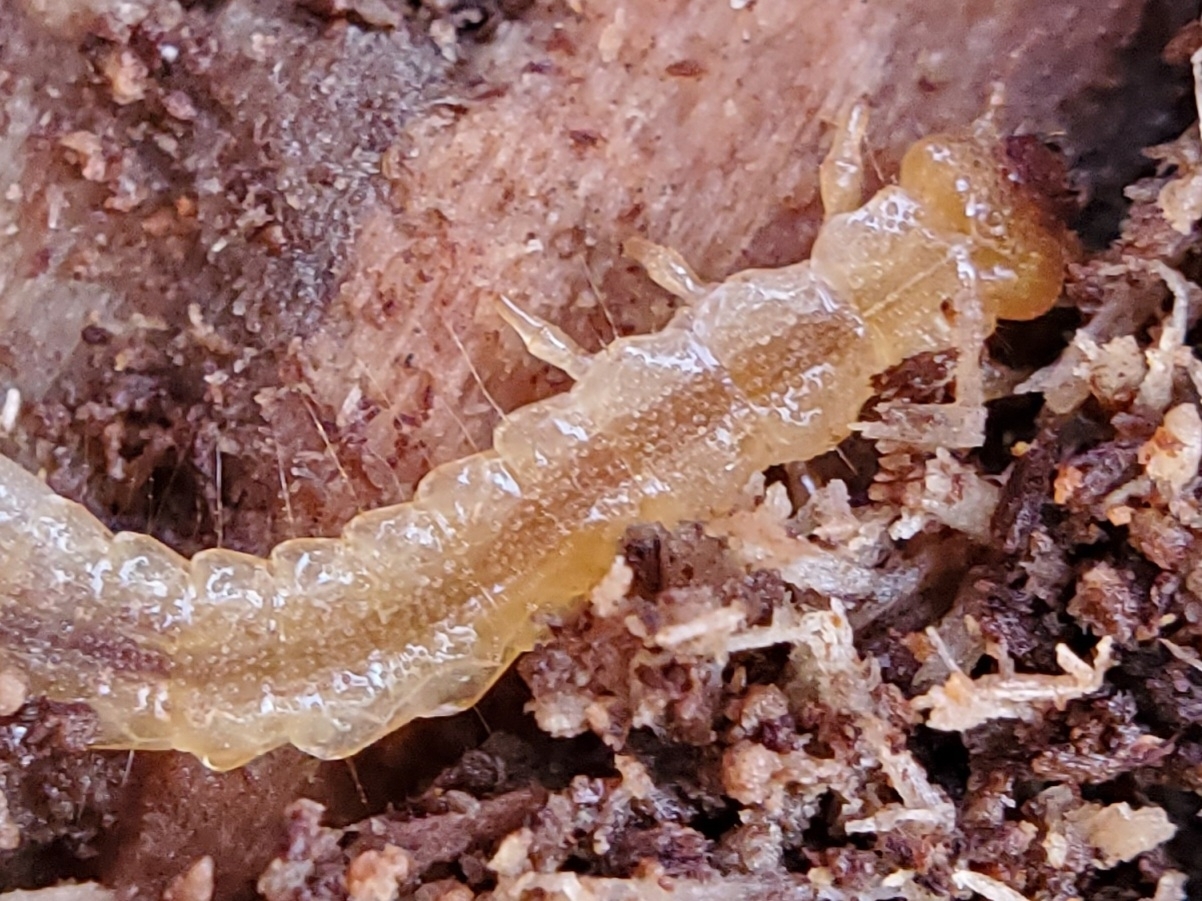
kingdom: Animalia
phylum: Arthropoda
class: Insecta
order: Coleoptera
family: Pyrochroidae
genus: Dendroides
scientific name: Dendroides ephemeroides
